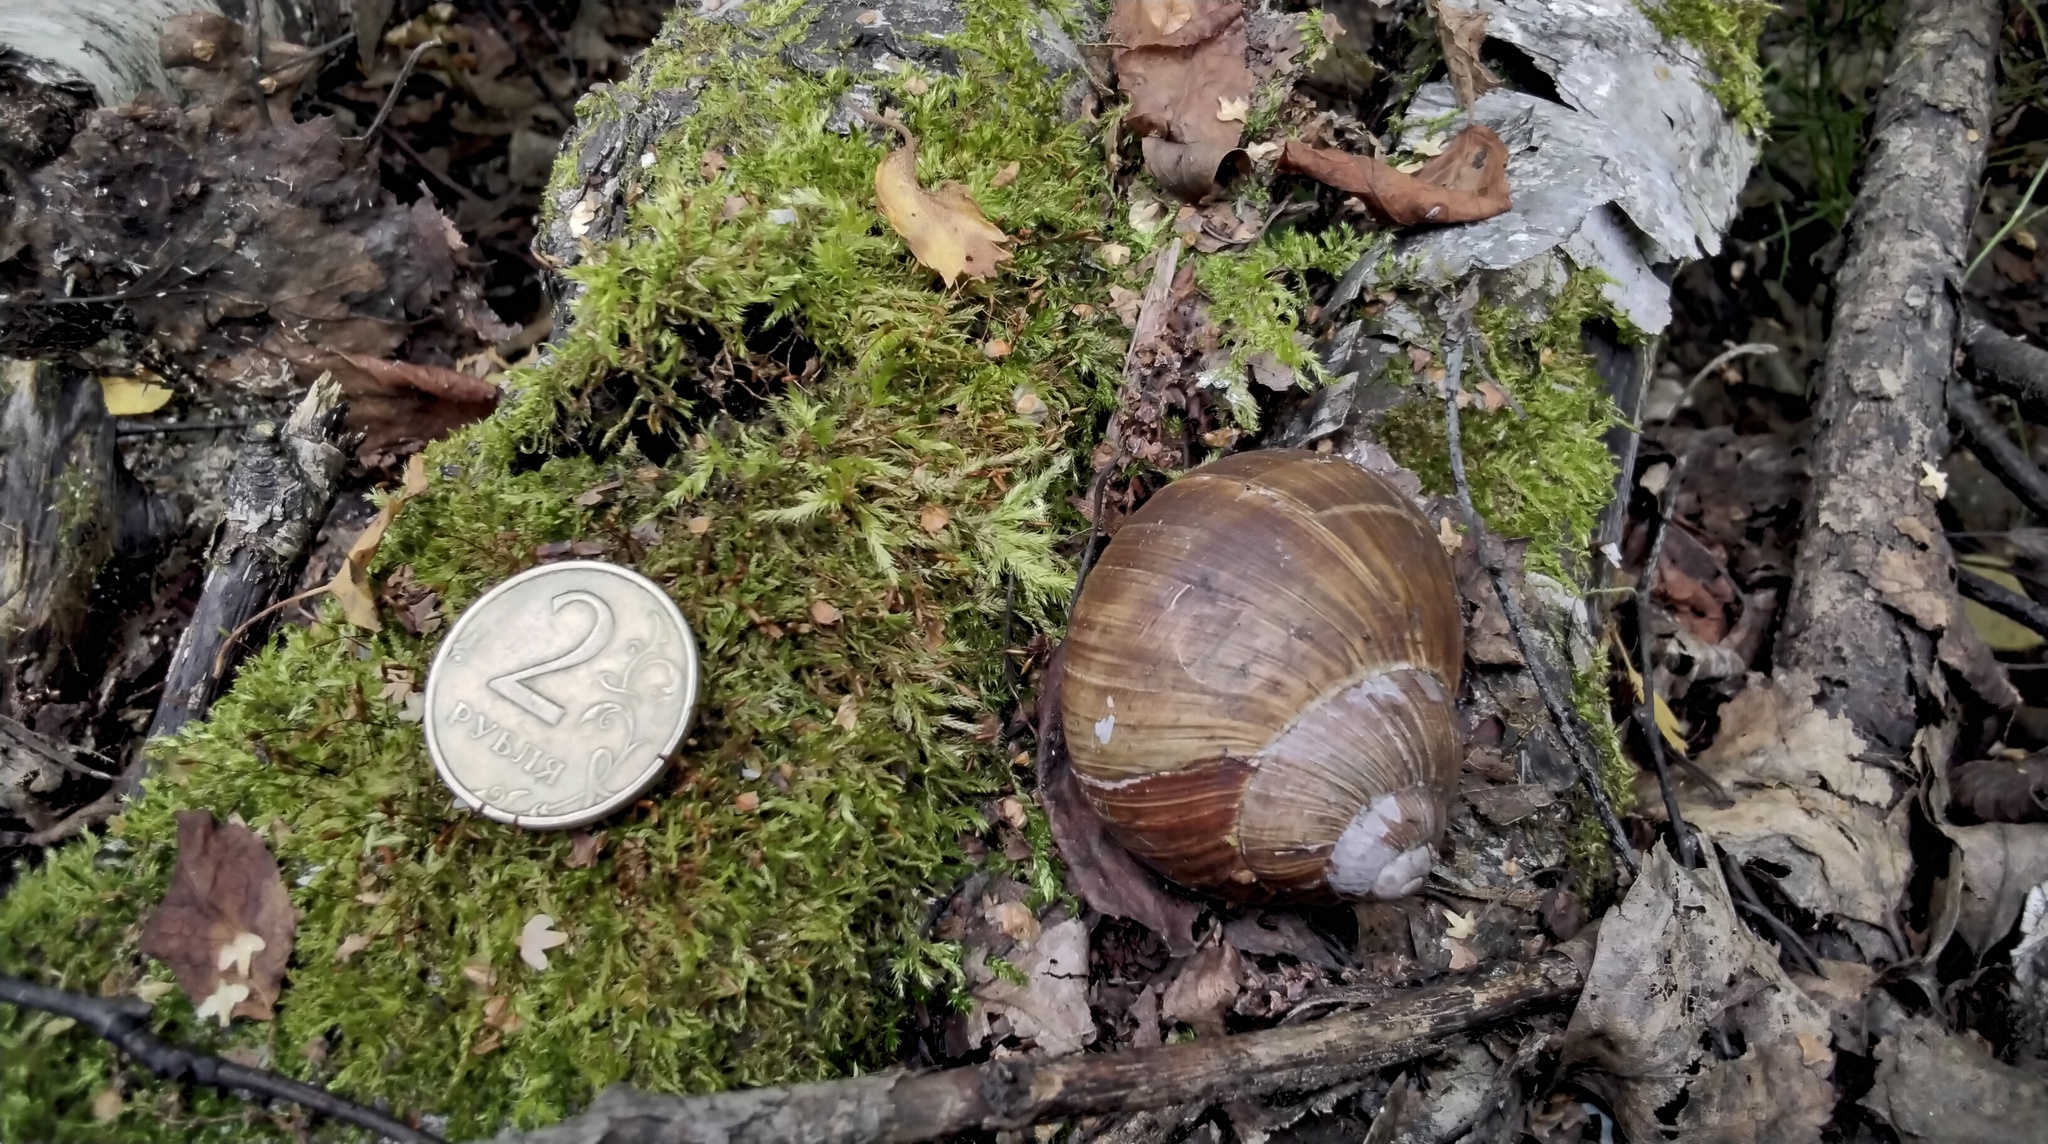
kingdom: Animalia
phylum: Mollusca
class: Gastropoda
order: Stylommatophora
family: Helicidae
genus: Helix
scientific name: Helix pomatia
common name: Roman snail
